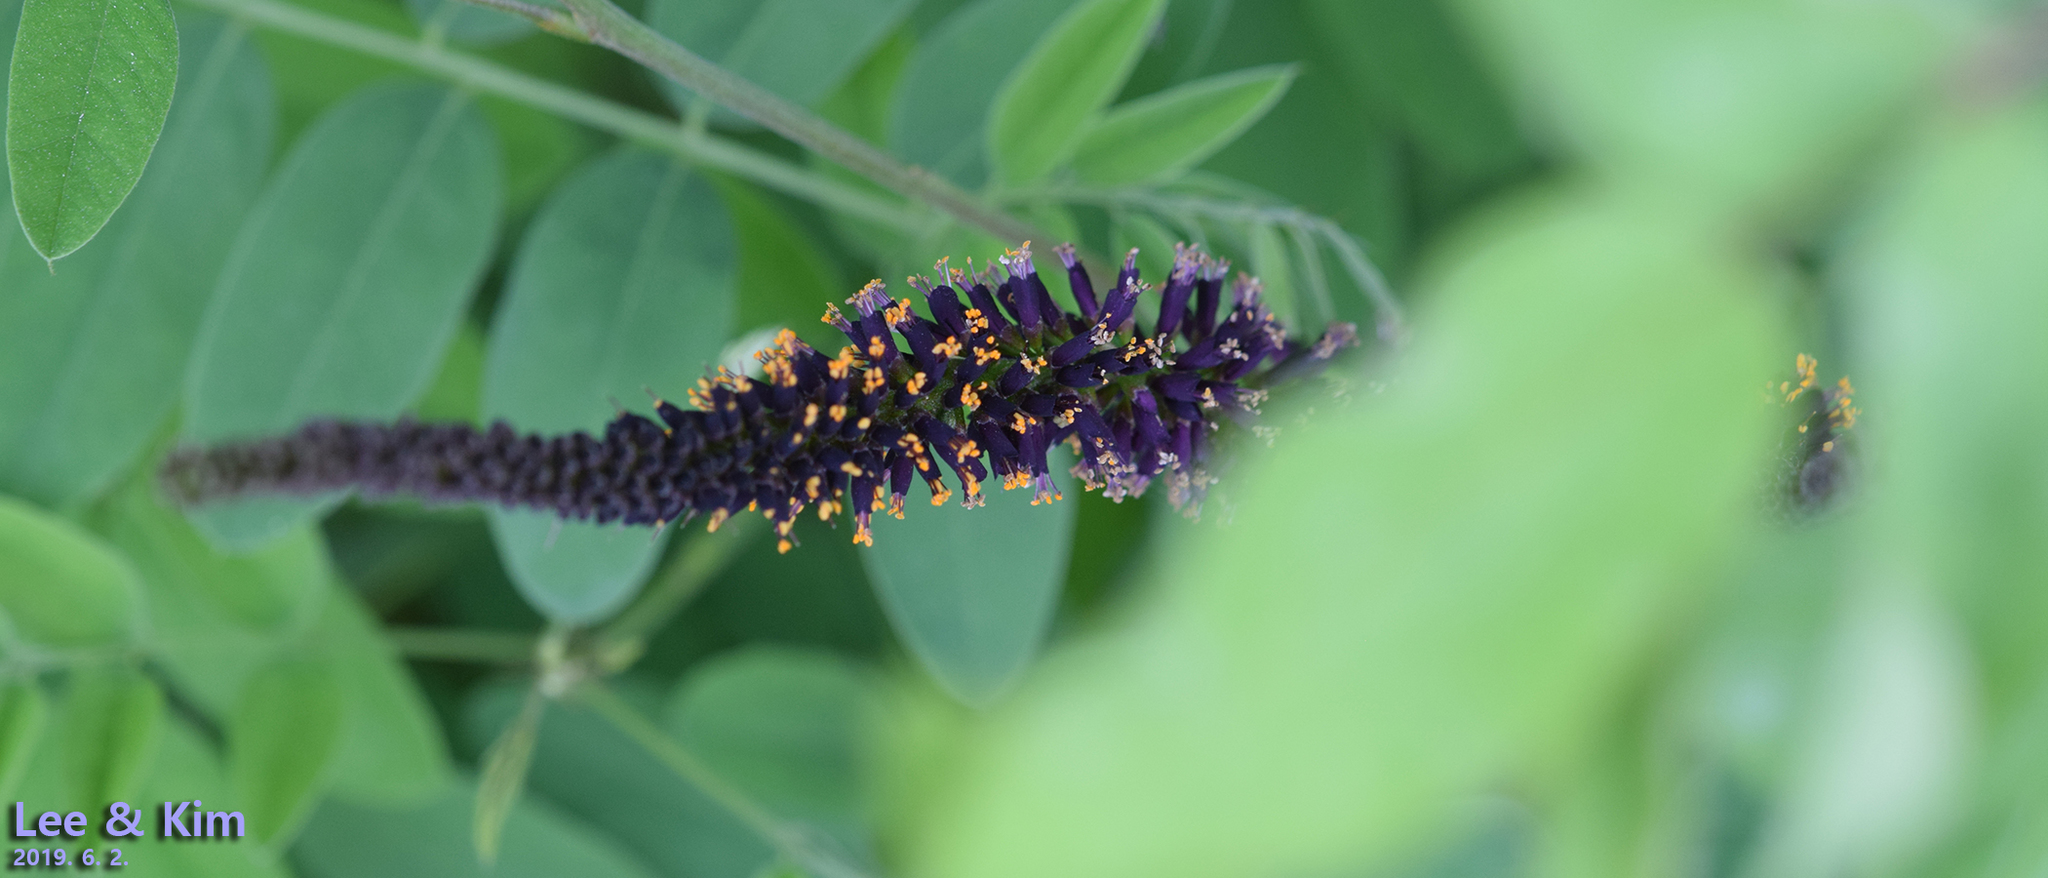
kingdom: Plantae
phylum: Tracheophyta
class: Magnoliopsida
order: Fabales
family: Fabaceae
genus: Amorpha
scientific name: Amorpha fruticosa
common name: False indigo
